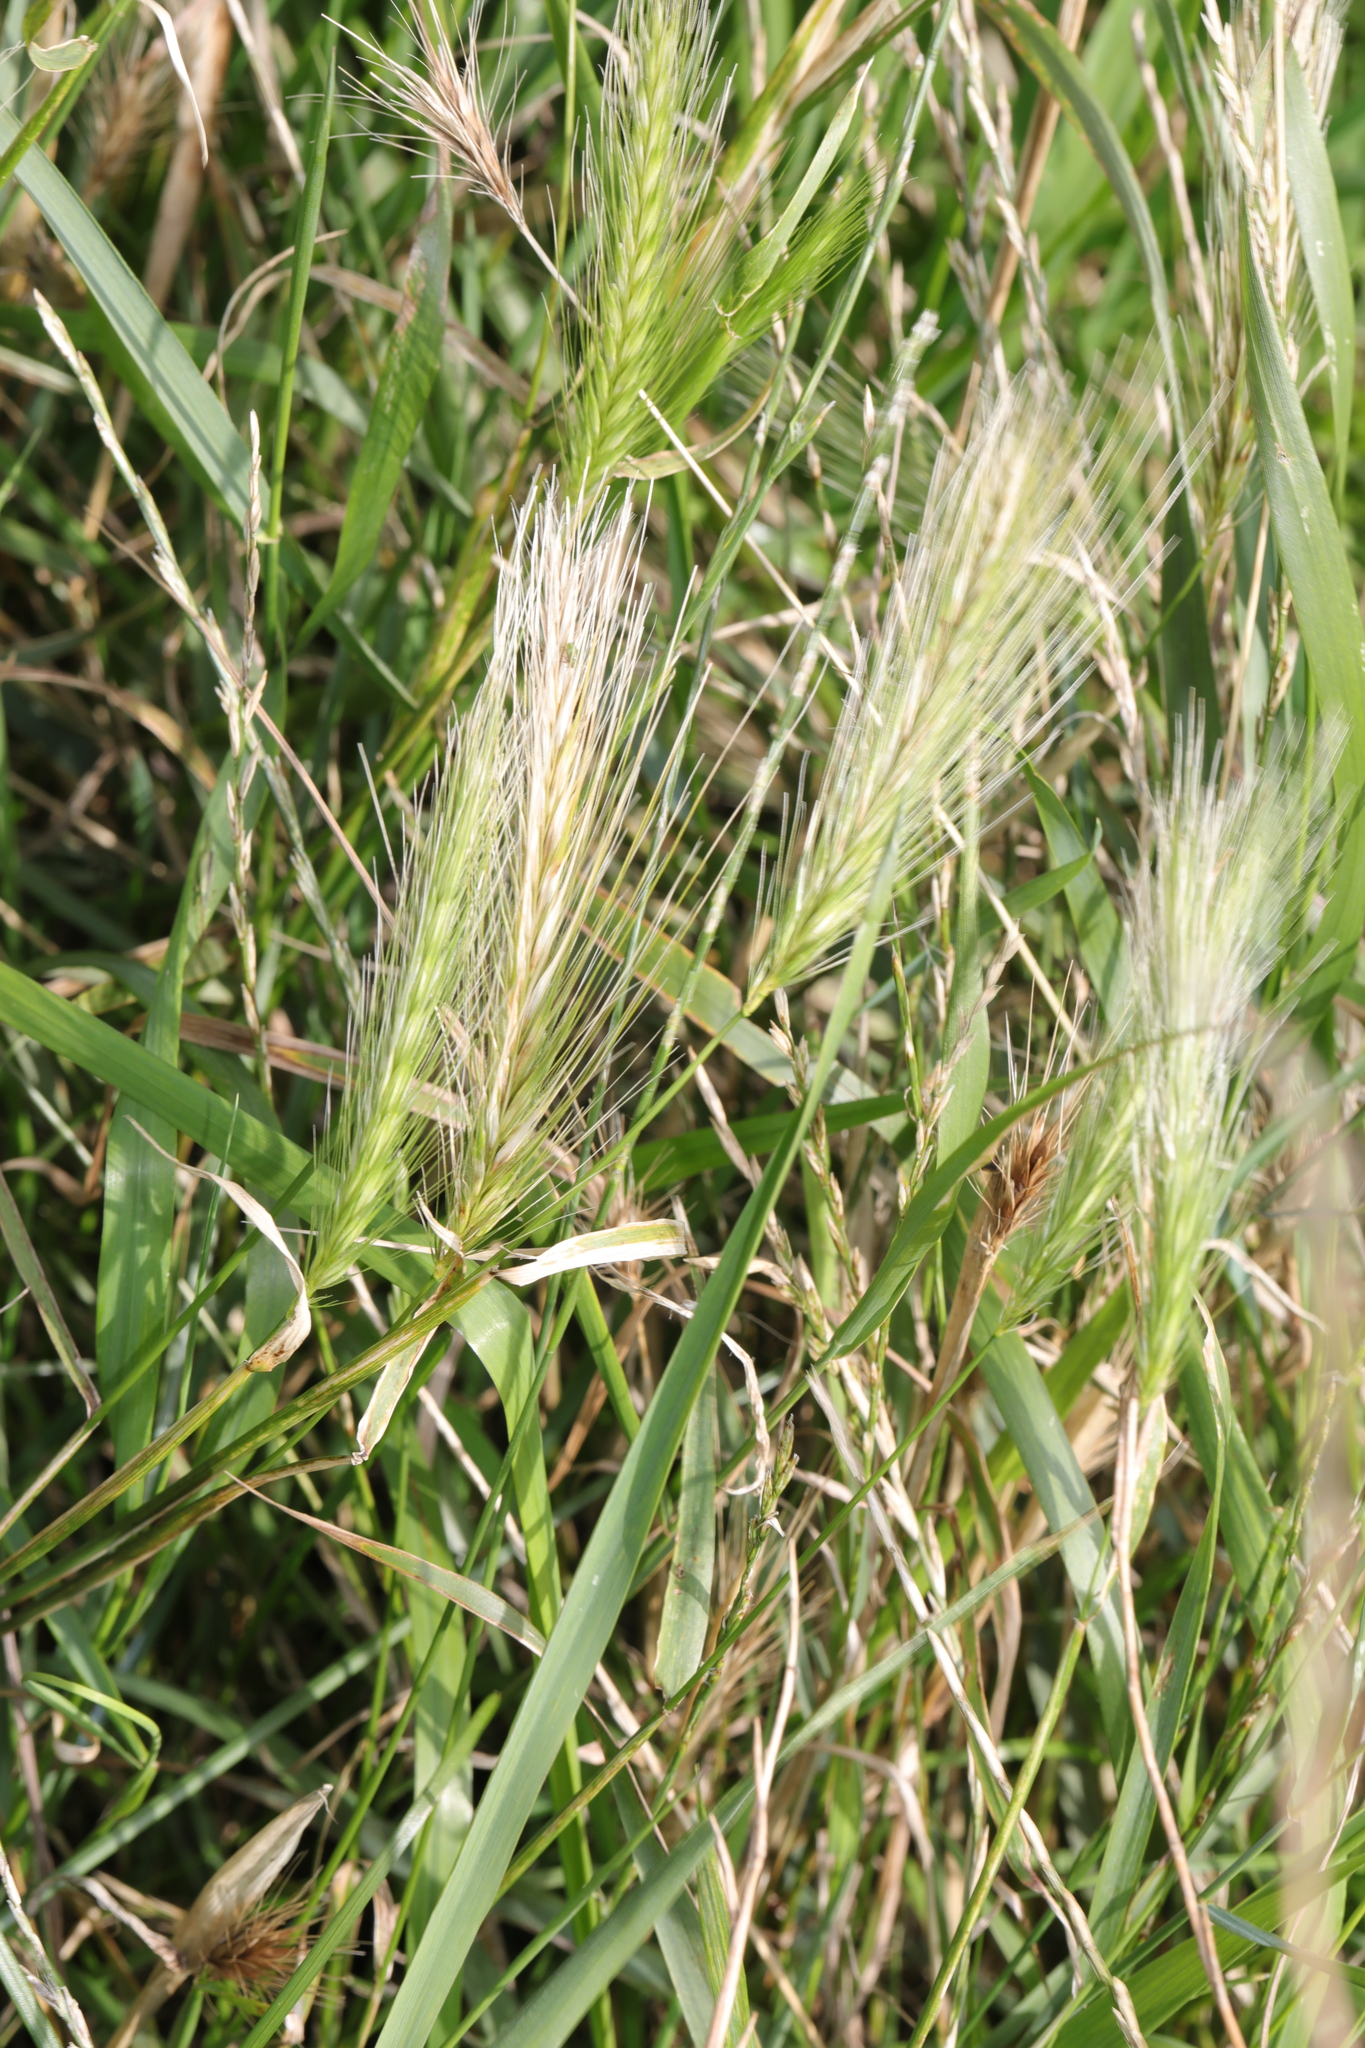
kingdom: Plantae
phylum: Tracheophyta
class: Liliopsida
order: Poales
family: Poaceae
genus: Hordeum
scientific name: Hordeum murinum
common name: Wall barley
